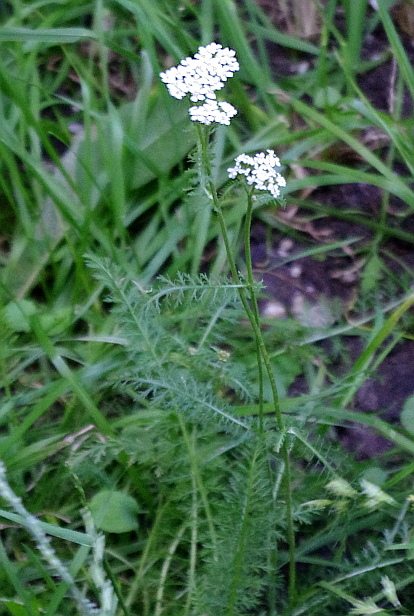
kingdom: Plantae
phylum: Tracheophyta
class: Magnoliopsida
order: Asterales
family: Asteraceae
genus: Achillea
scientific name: Achillea millefolium
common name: Yarrow
